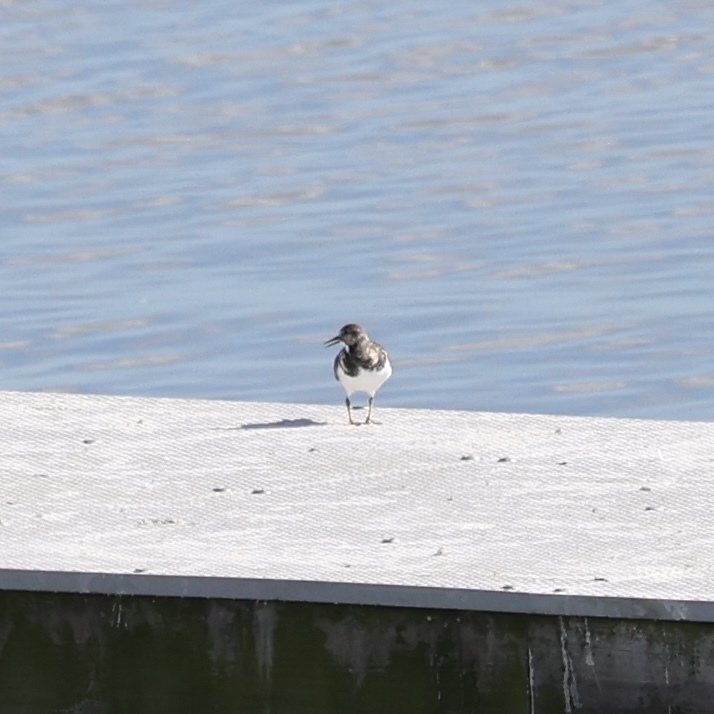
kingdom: Animalia
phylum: Chordata
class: Aves
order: Charadriiformes
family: Scolopacidae
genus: Arenaria
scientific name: Arenaria interpres
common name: Ruddy turnstone
